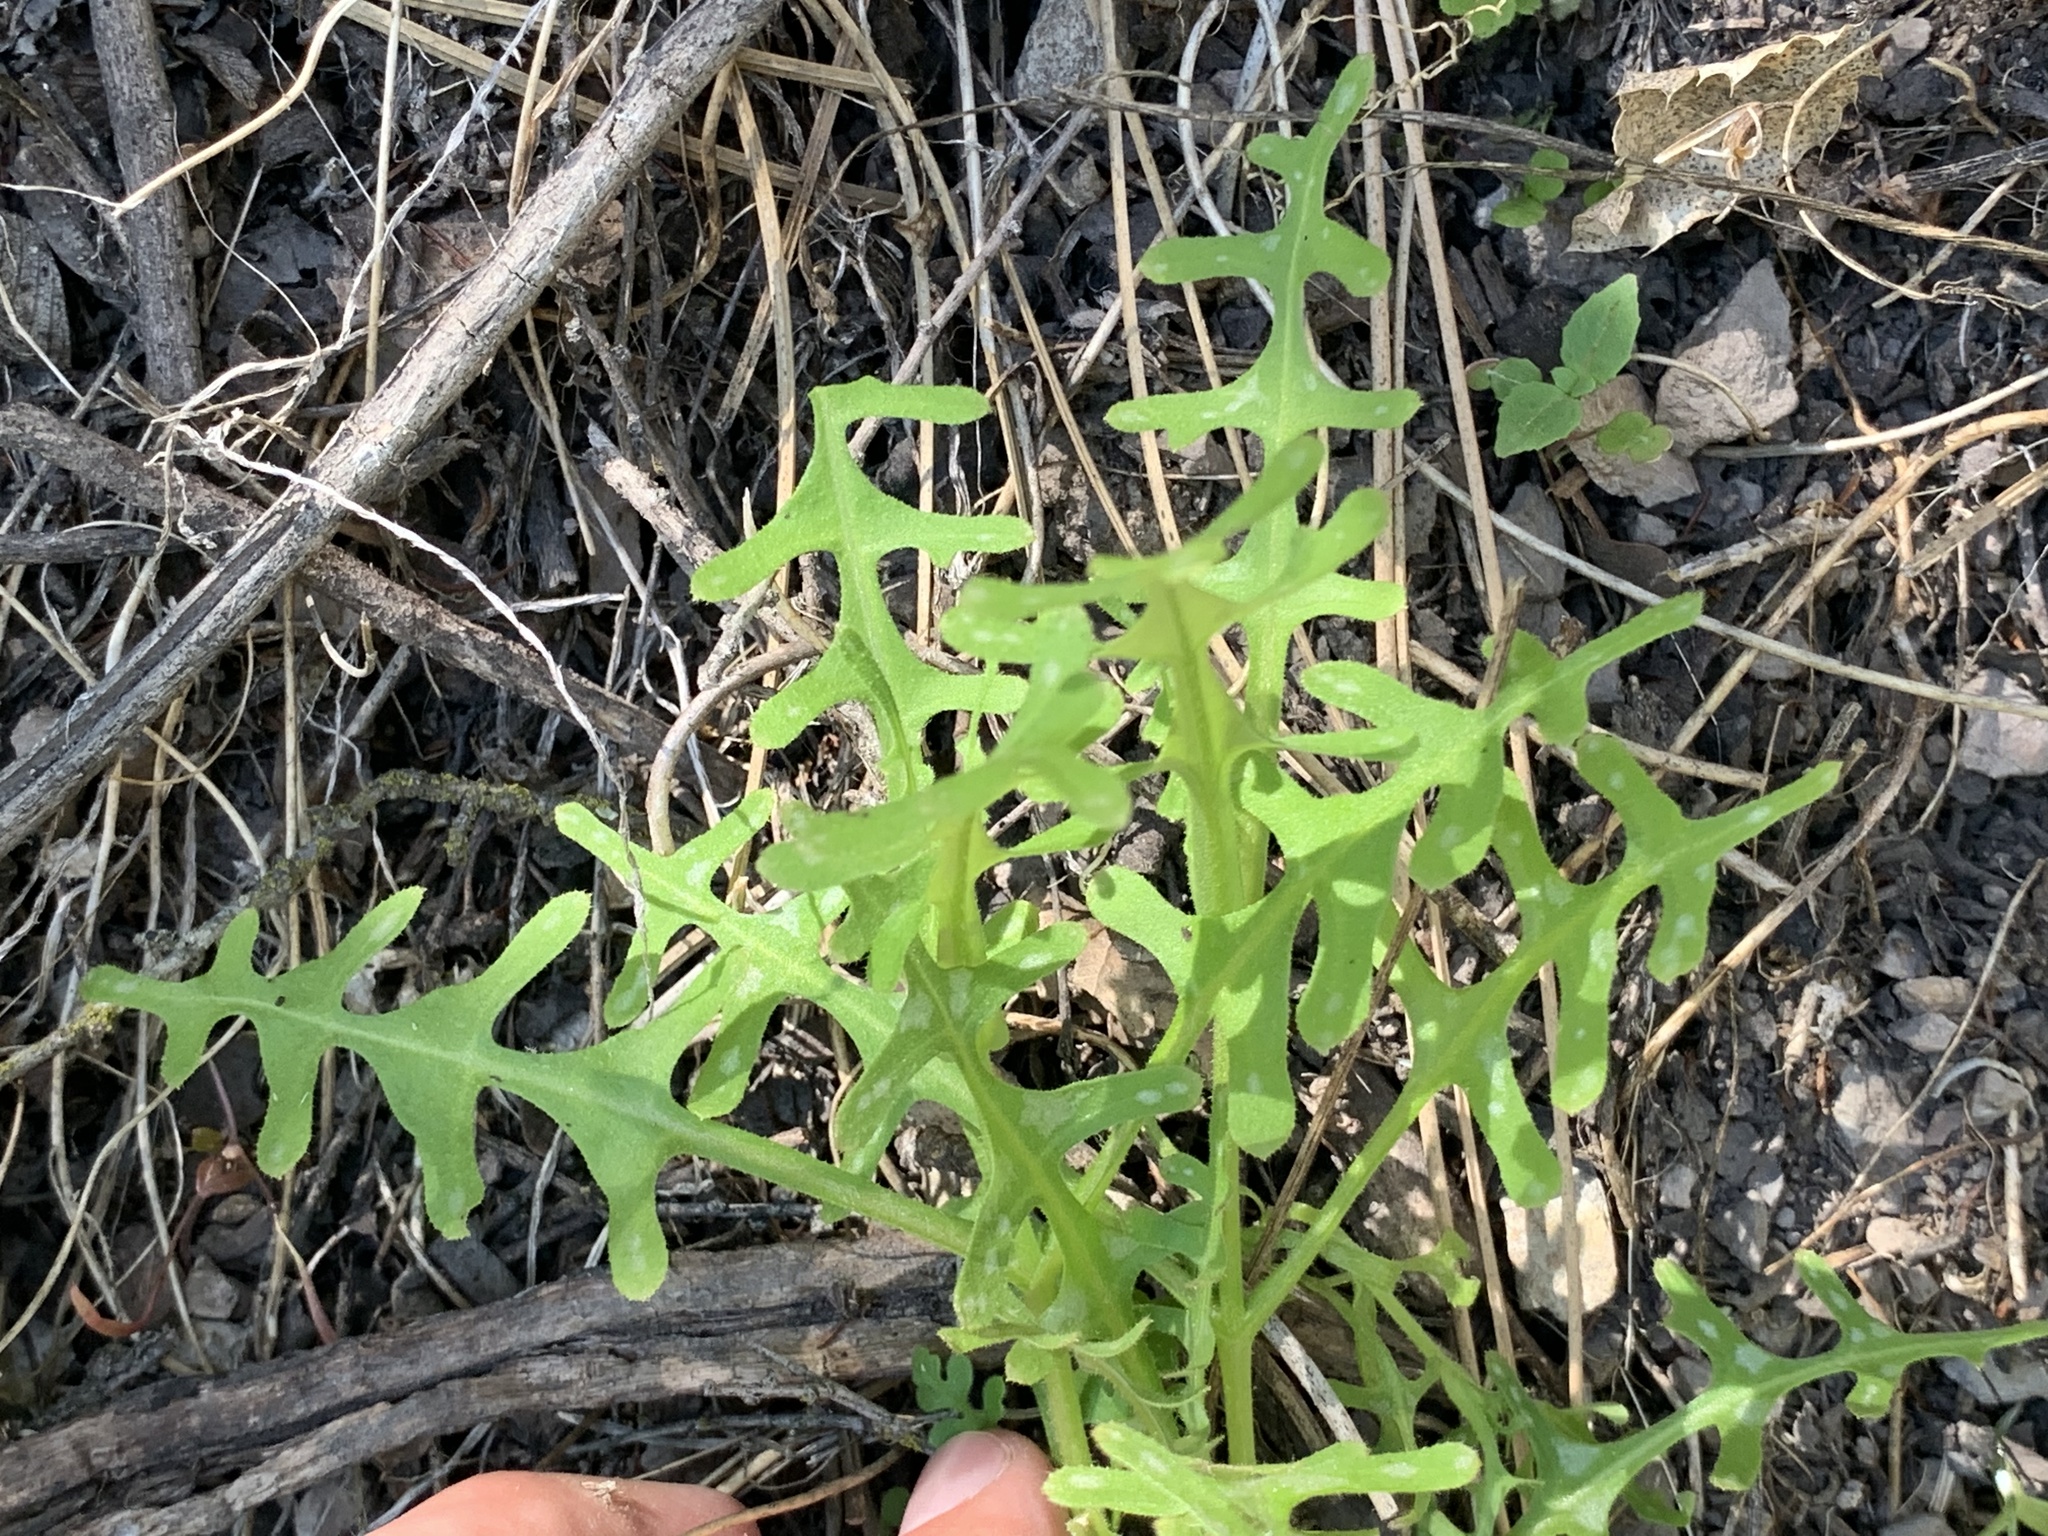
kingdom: Plantae
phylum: Tracheophyta
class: Magnoliopsida
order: Boraginales
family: Hydrophyllaceae
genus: Pholistoma
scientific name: Pholistoma auritum
